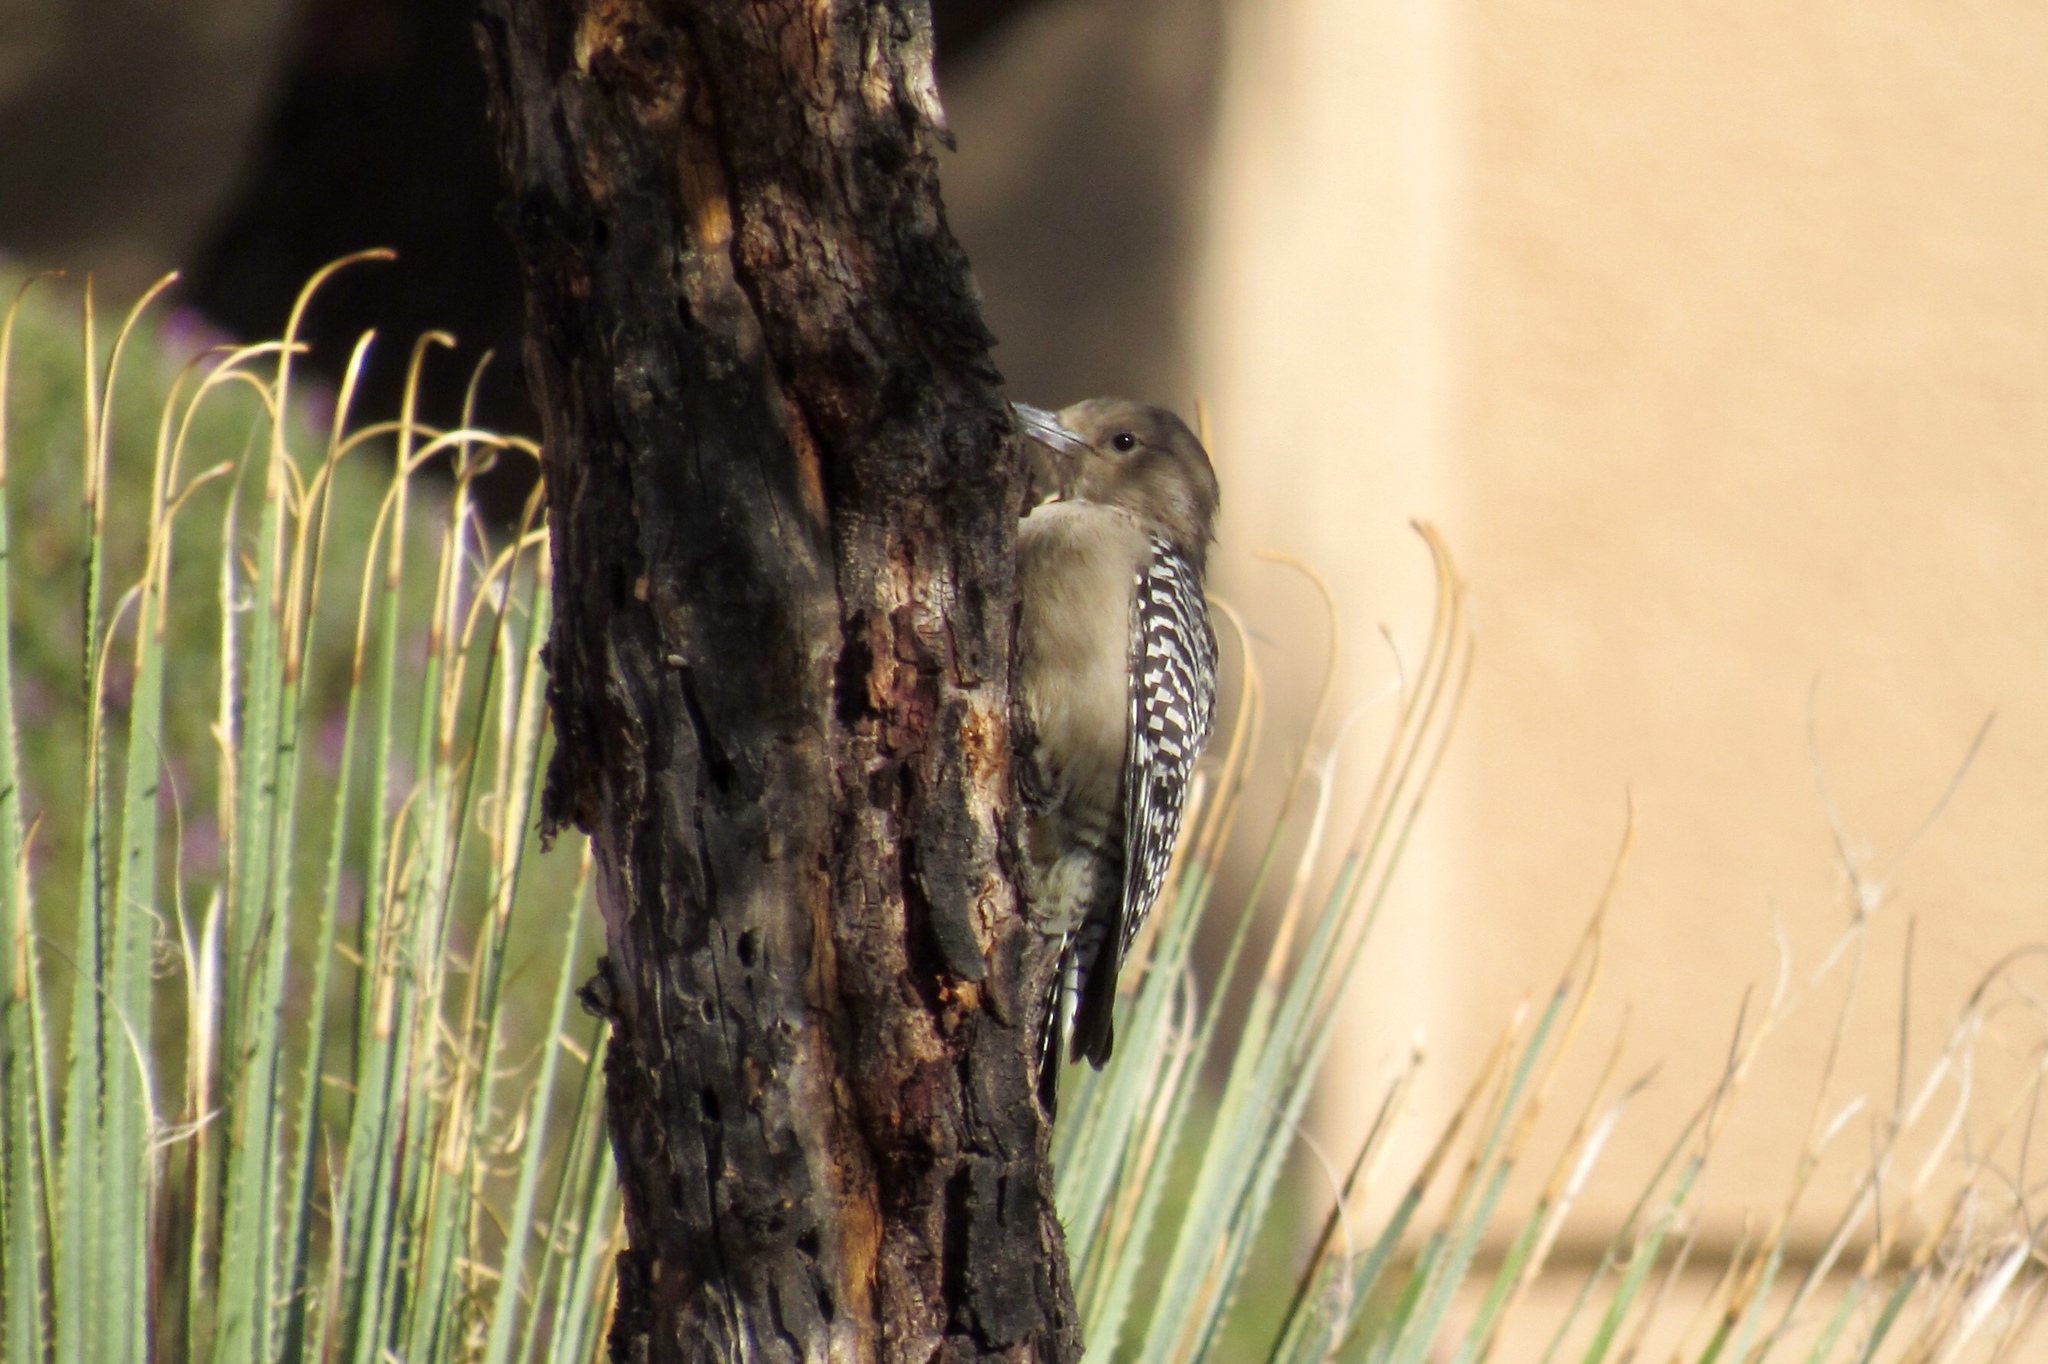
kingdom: Animalia
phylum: Chordata
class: Aves
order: Piciformes
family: Picidae
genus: Melanerpes
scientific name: Melanerpes uropygialis
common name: Gila woodpecker
